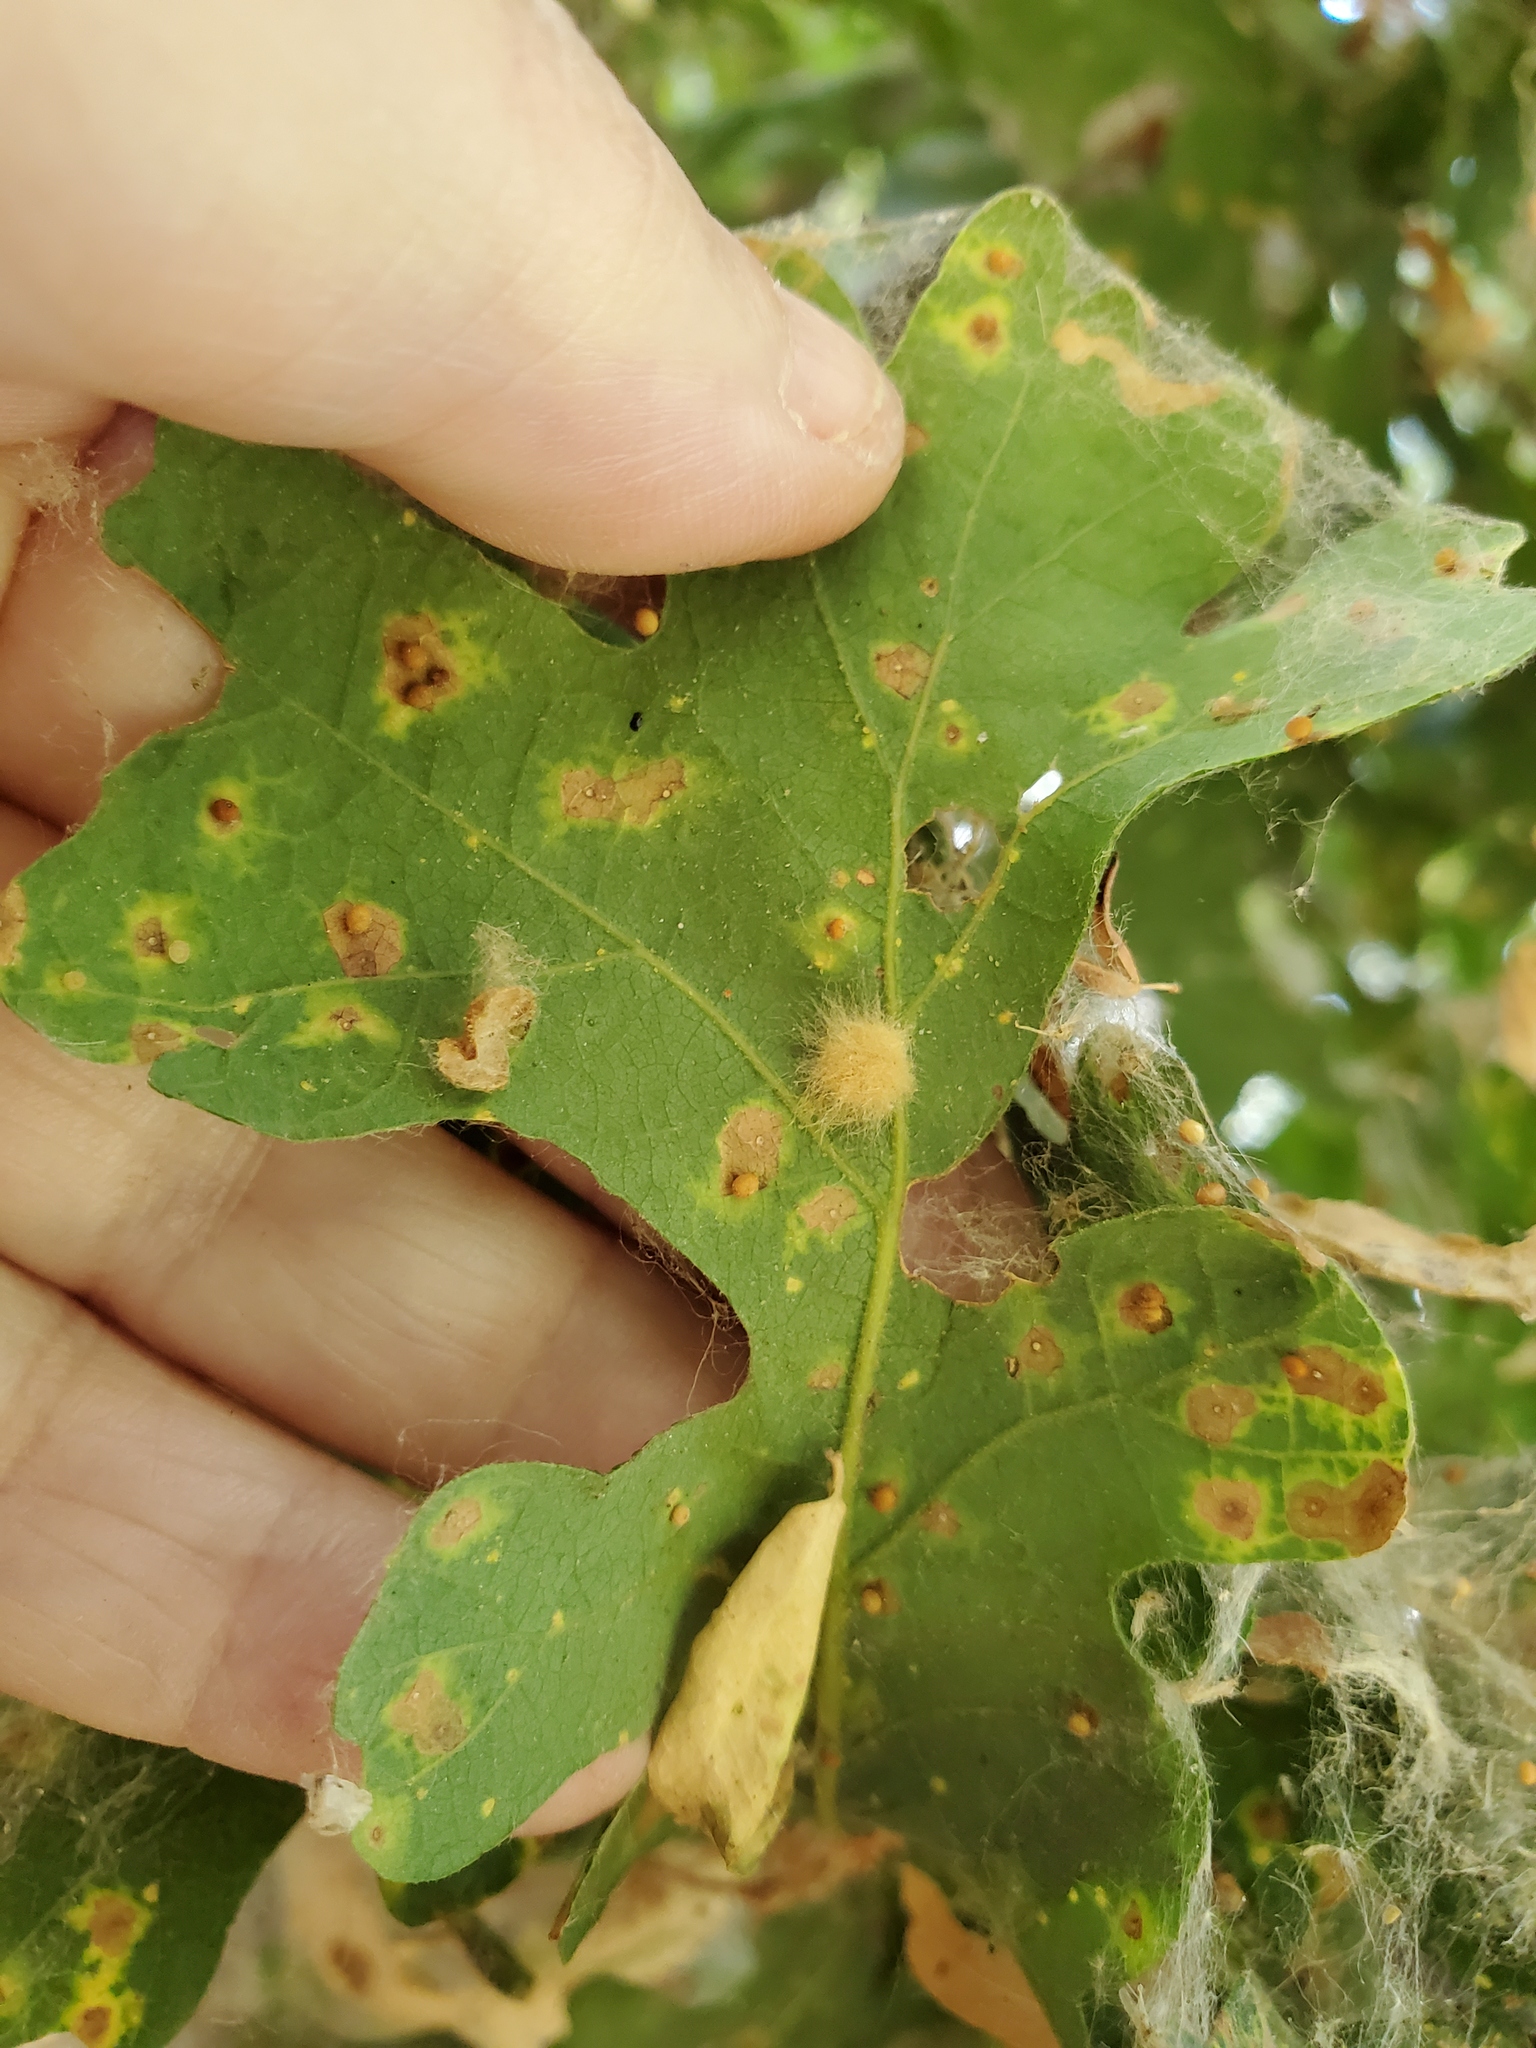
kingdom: Animalia
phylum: Arthropoda
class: Insecta
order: Hymenoptera
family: Cynipidae
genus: Neuroterus
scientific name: Neuroterus saltarius
